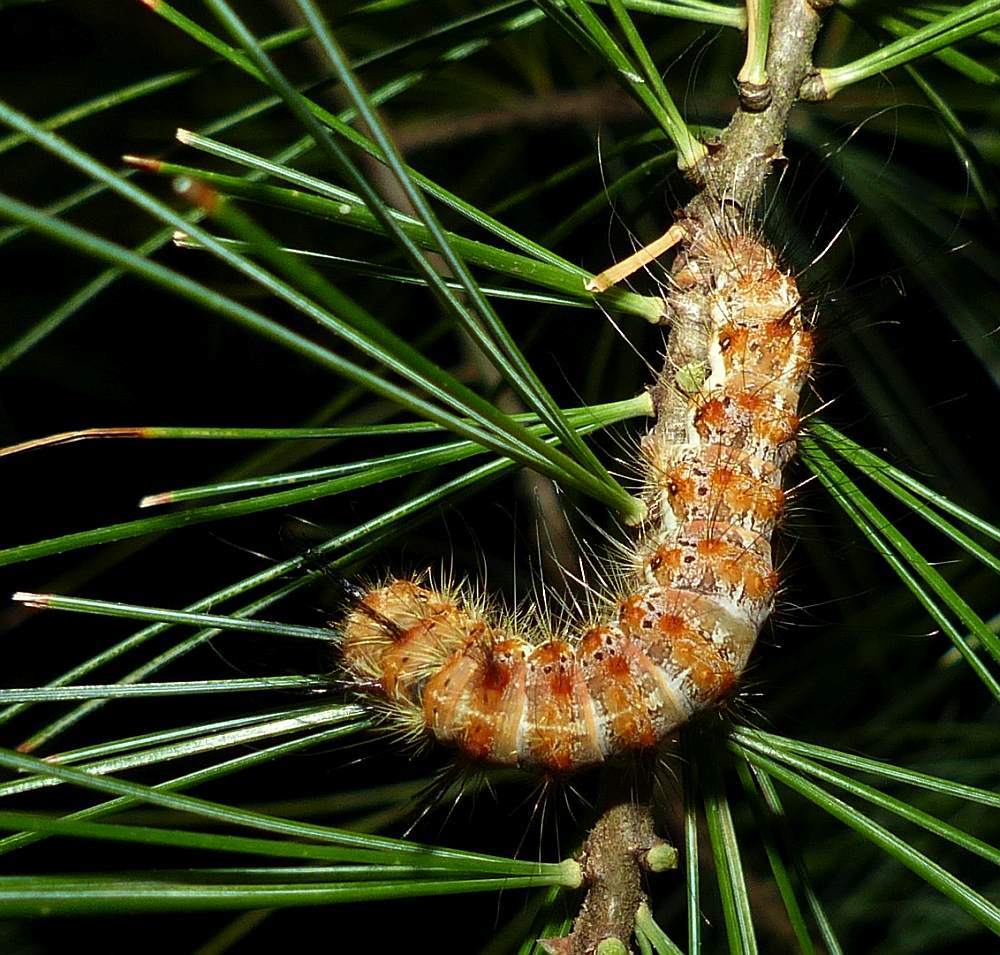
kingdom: Animalia
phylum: Arthropoda
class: Insecta
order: Lepidoptera
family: Noctuidae
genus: Panthea
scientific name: Panthea furcilla
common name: Eastern panthea moth
